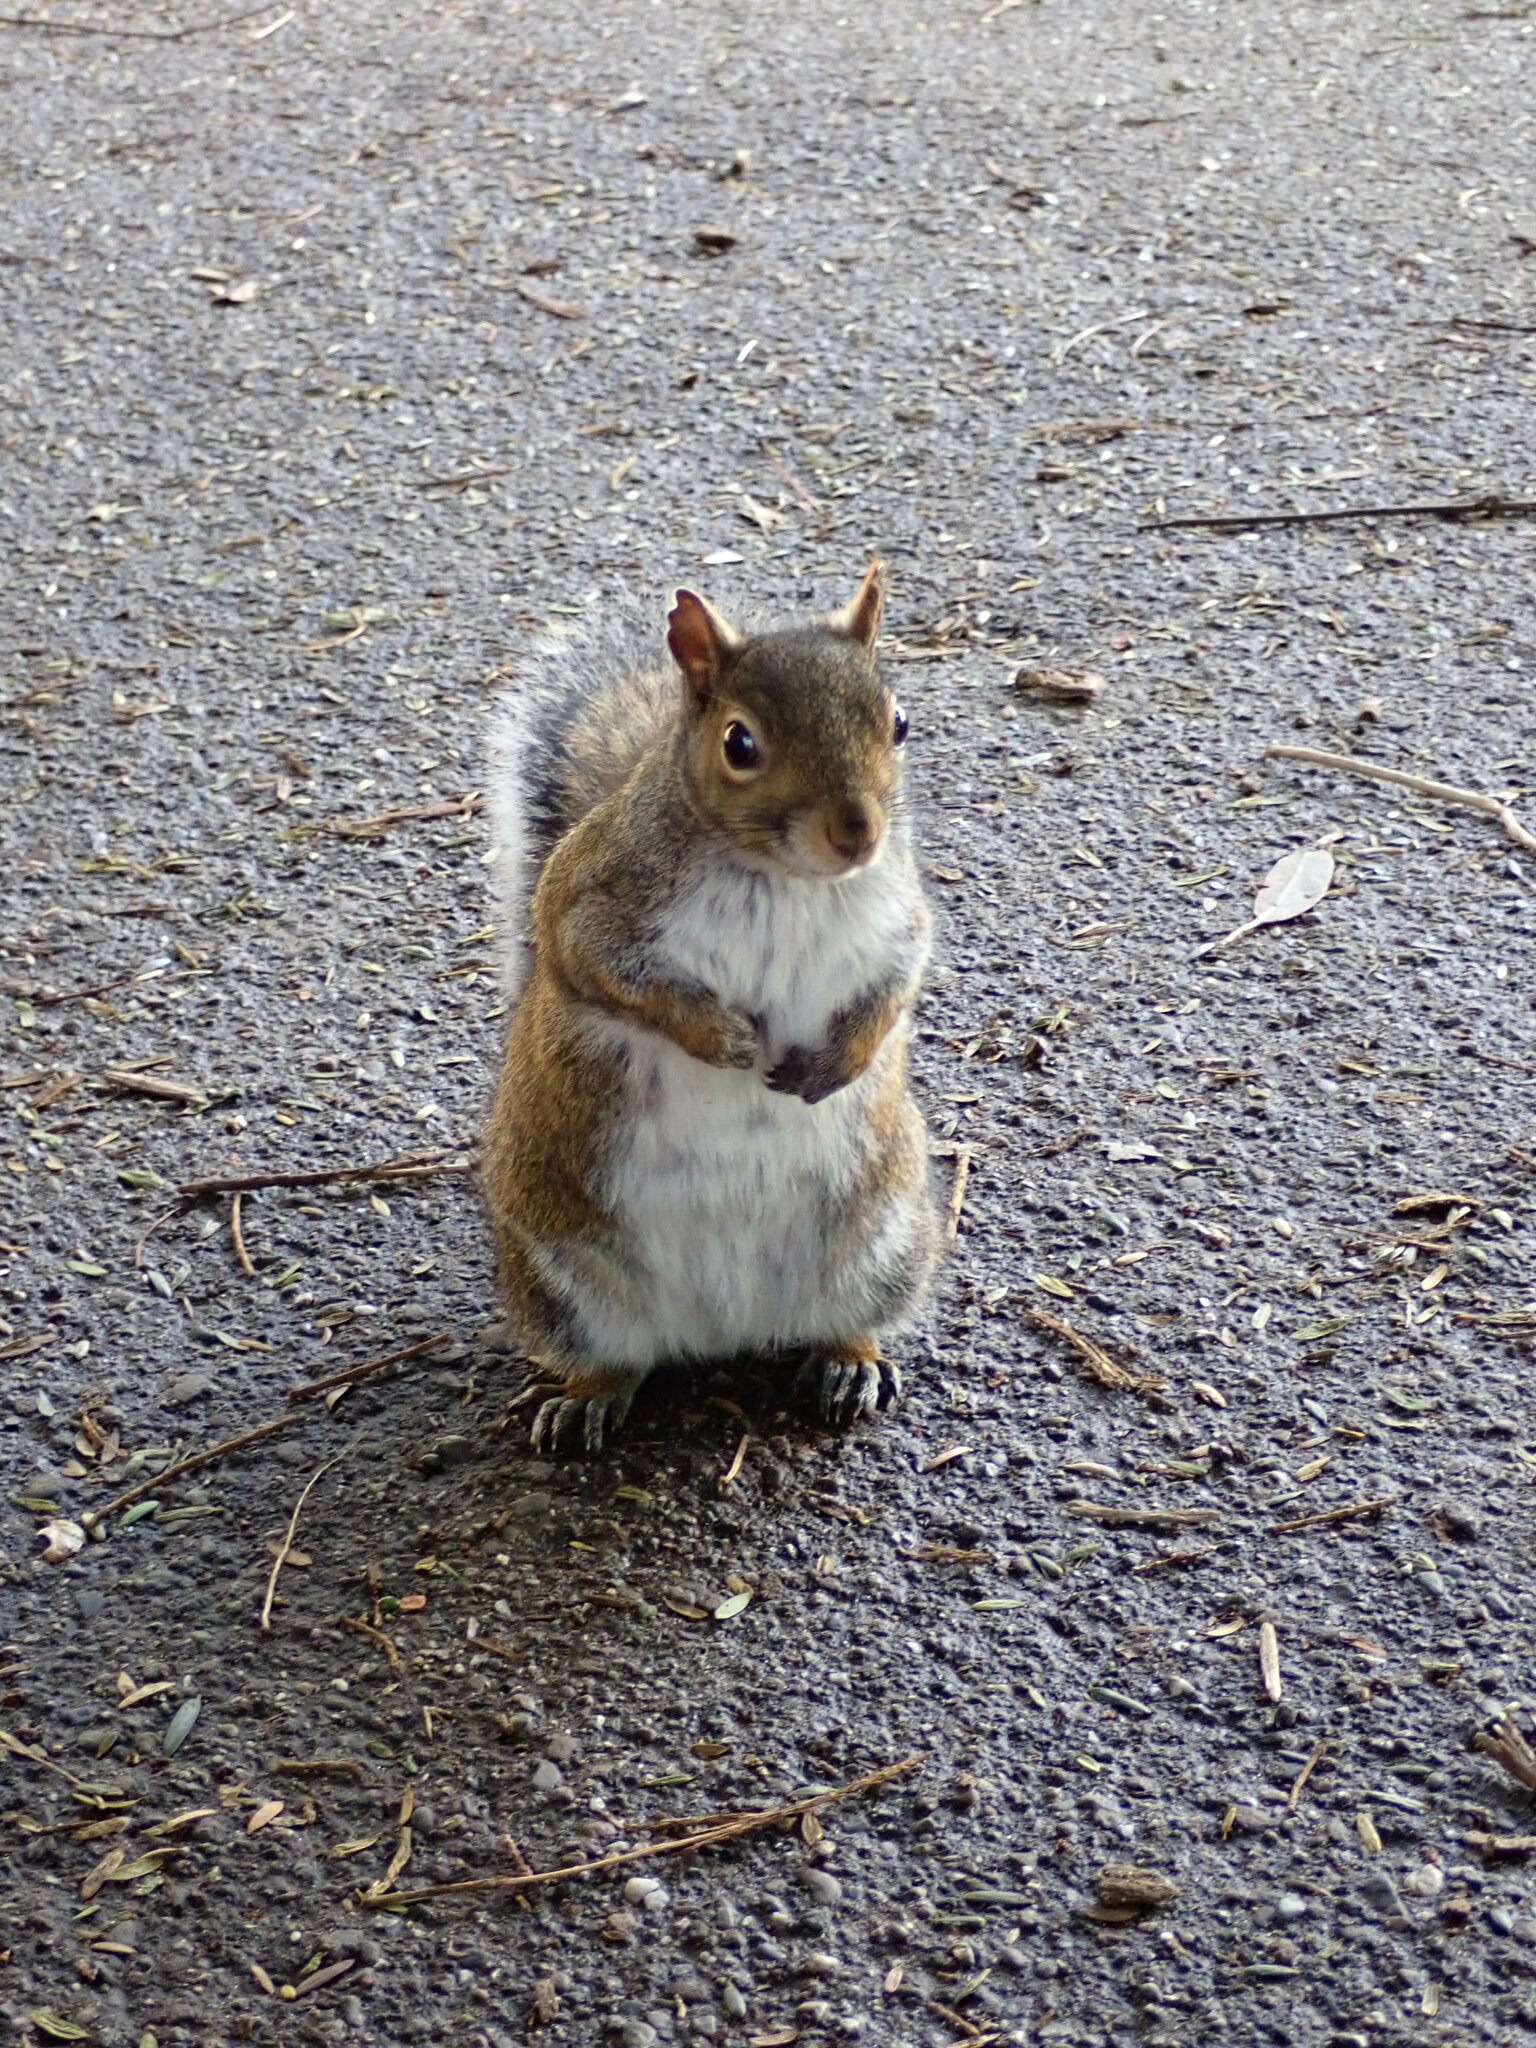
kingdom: Animalia
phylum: Chordata
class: Mammalia
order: Rodentia
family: Sciuridae
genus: Sciurus
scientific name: Sciurus carolinensis
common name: Eastern gray squirrel
